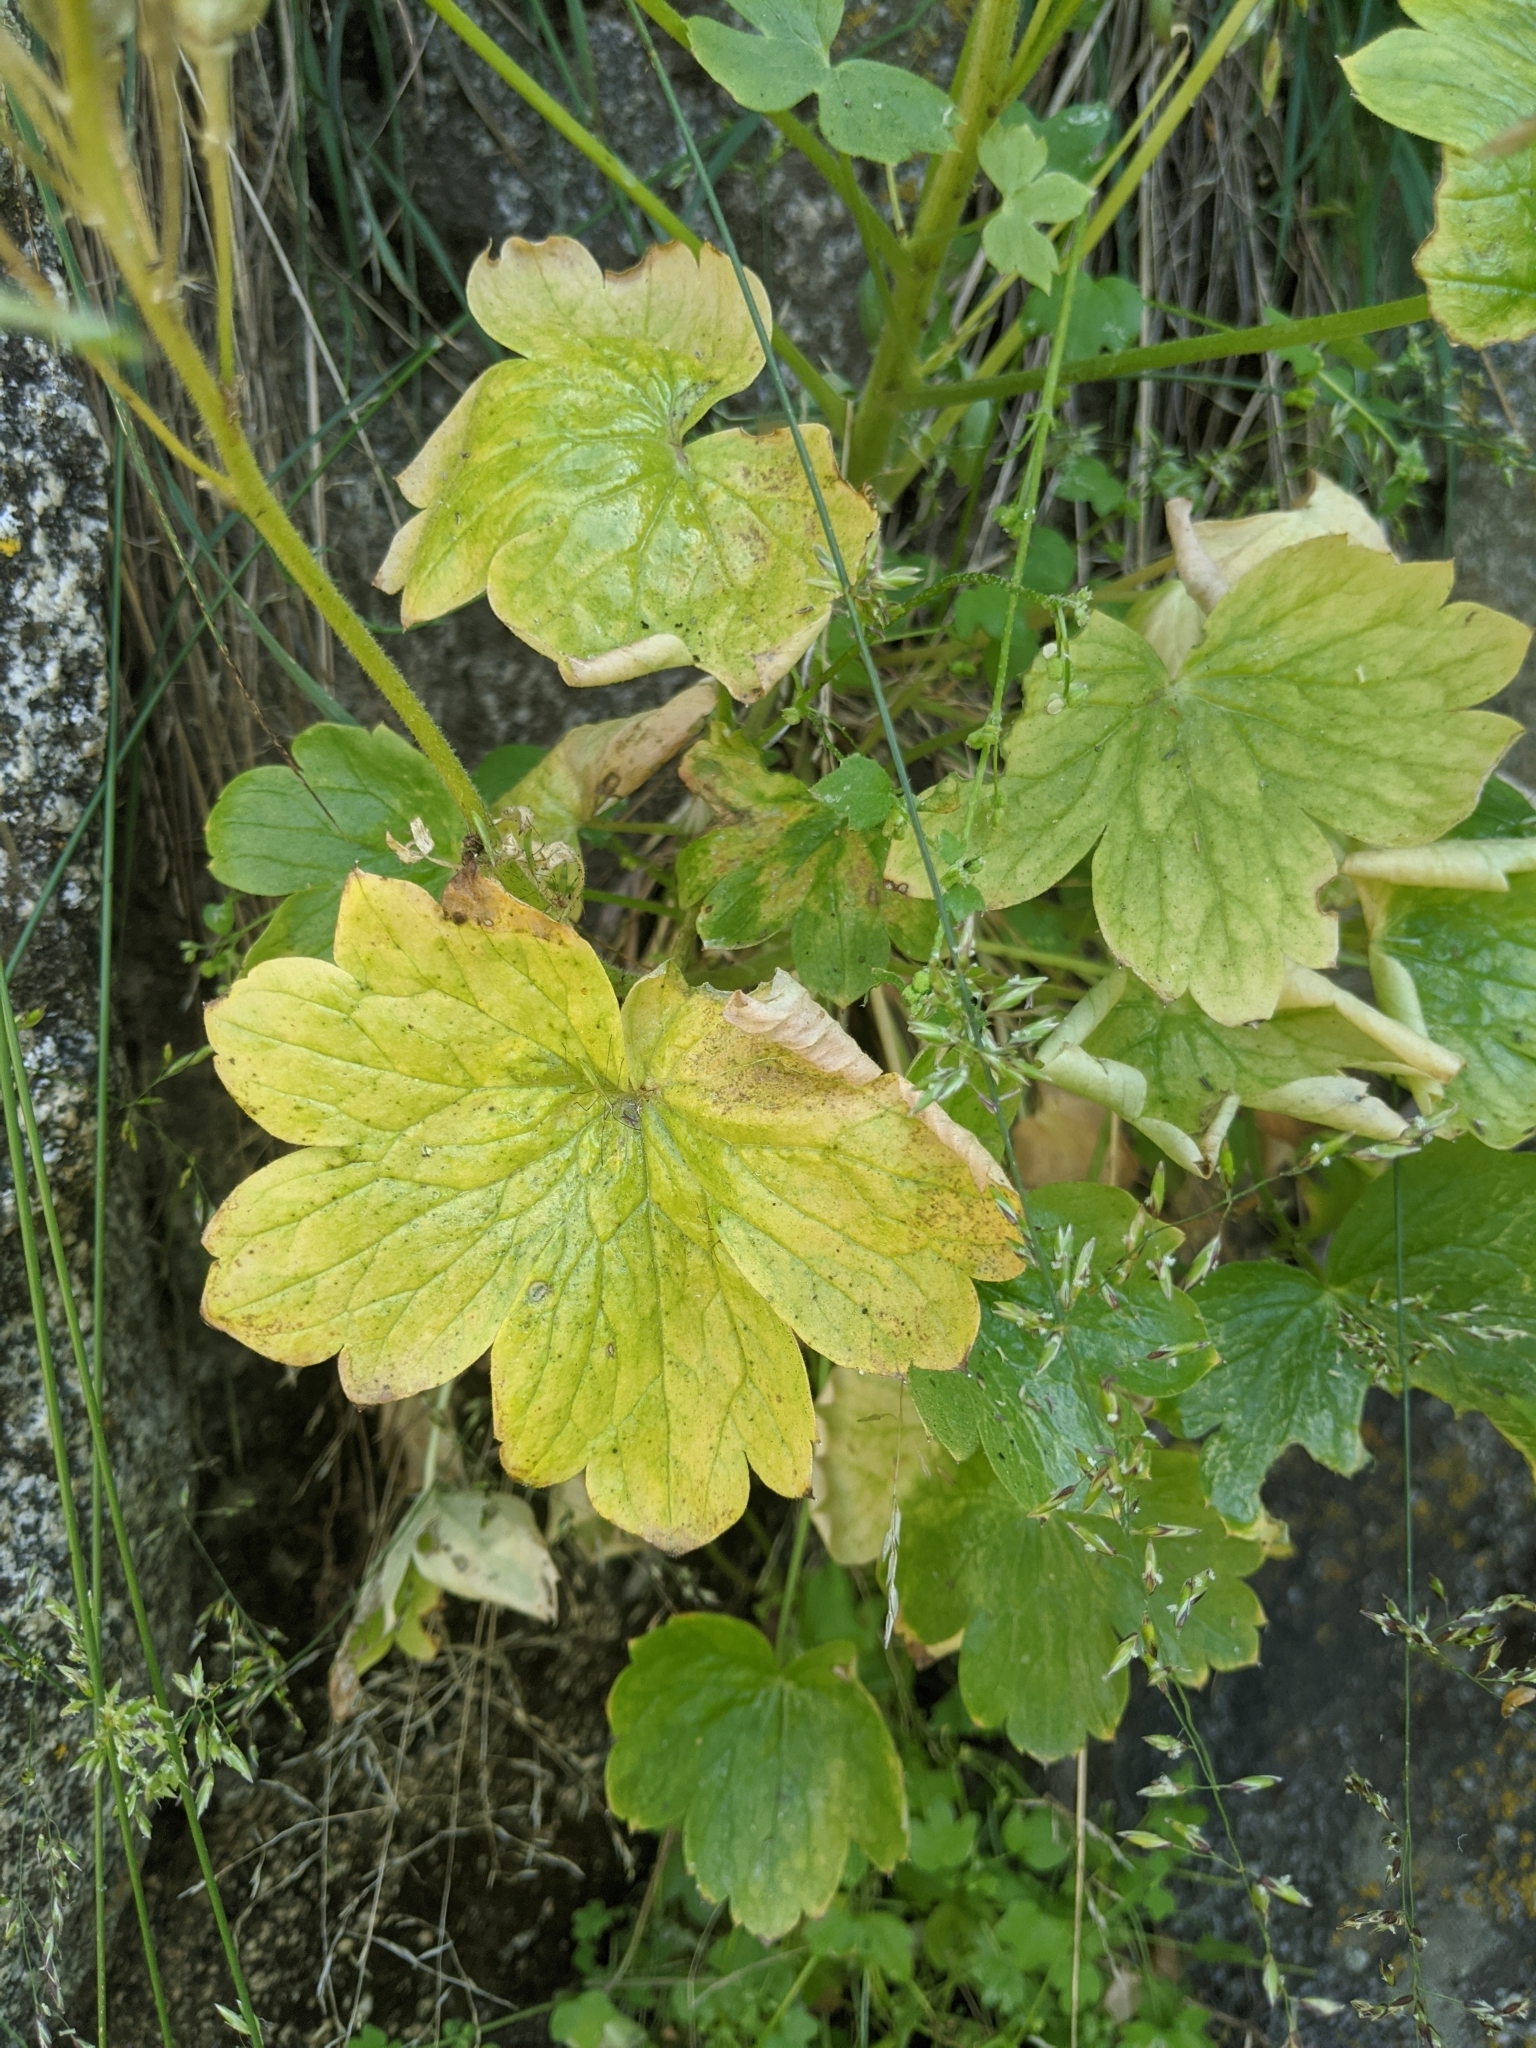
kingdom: Plantae
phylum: Tracheophyta
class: Magnoliopsida
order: Ranunculales
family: Ranunculaceae
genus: Delphinium
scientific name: Delphinium purpusii
